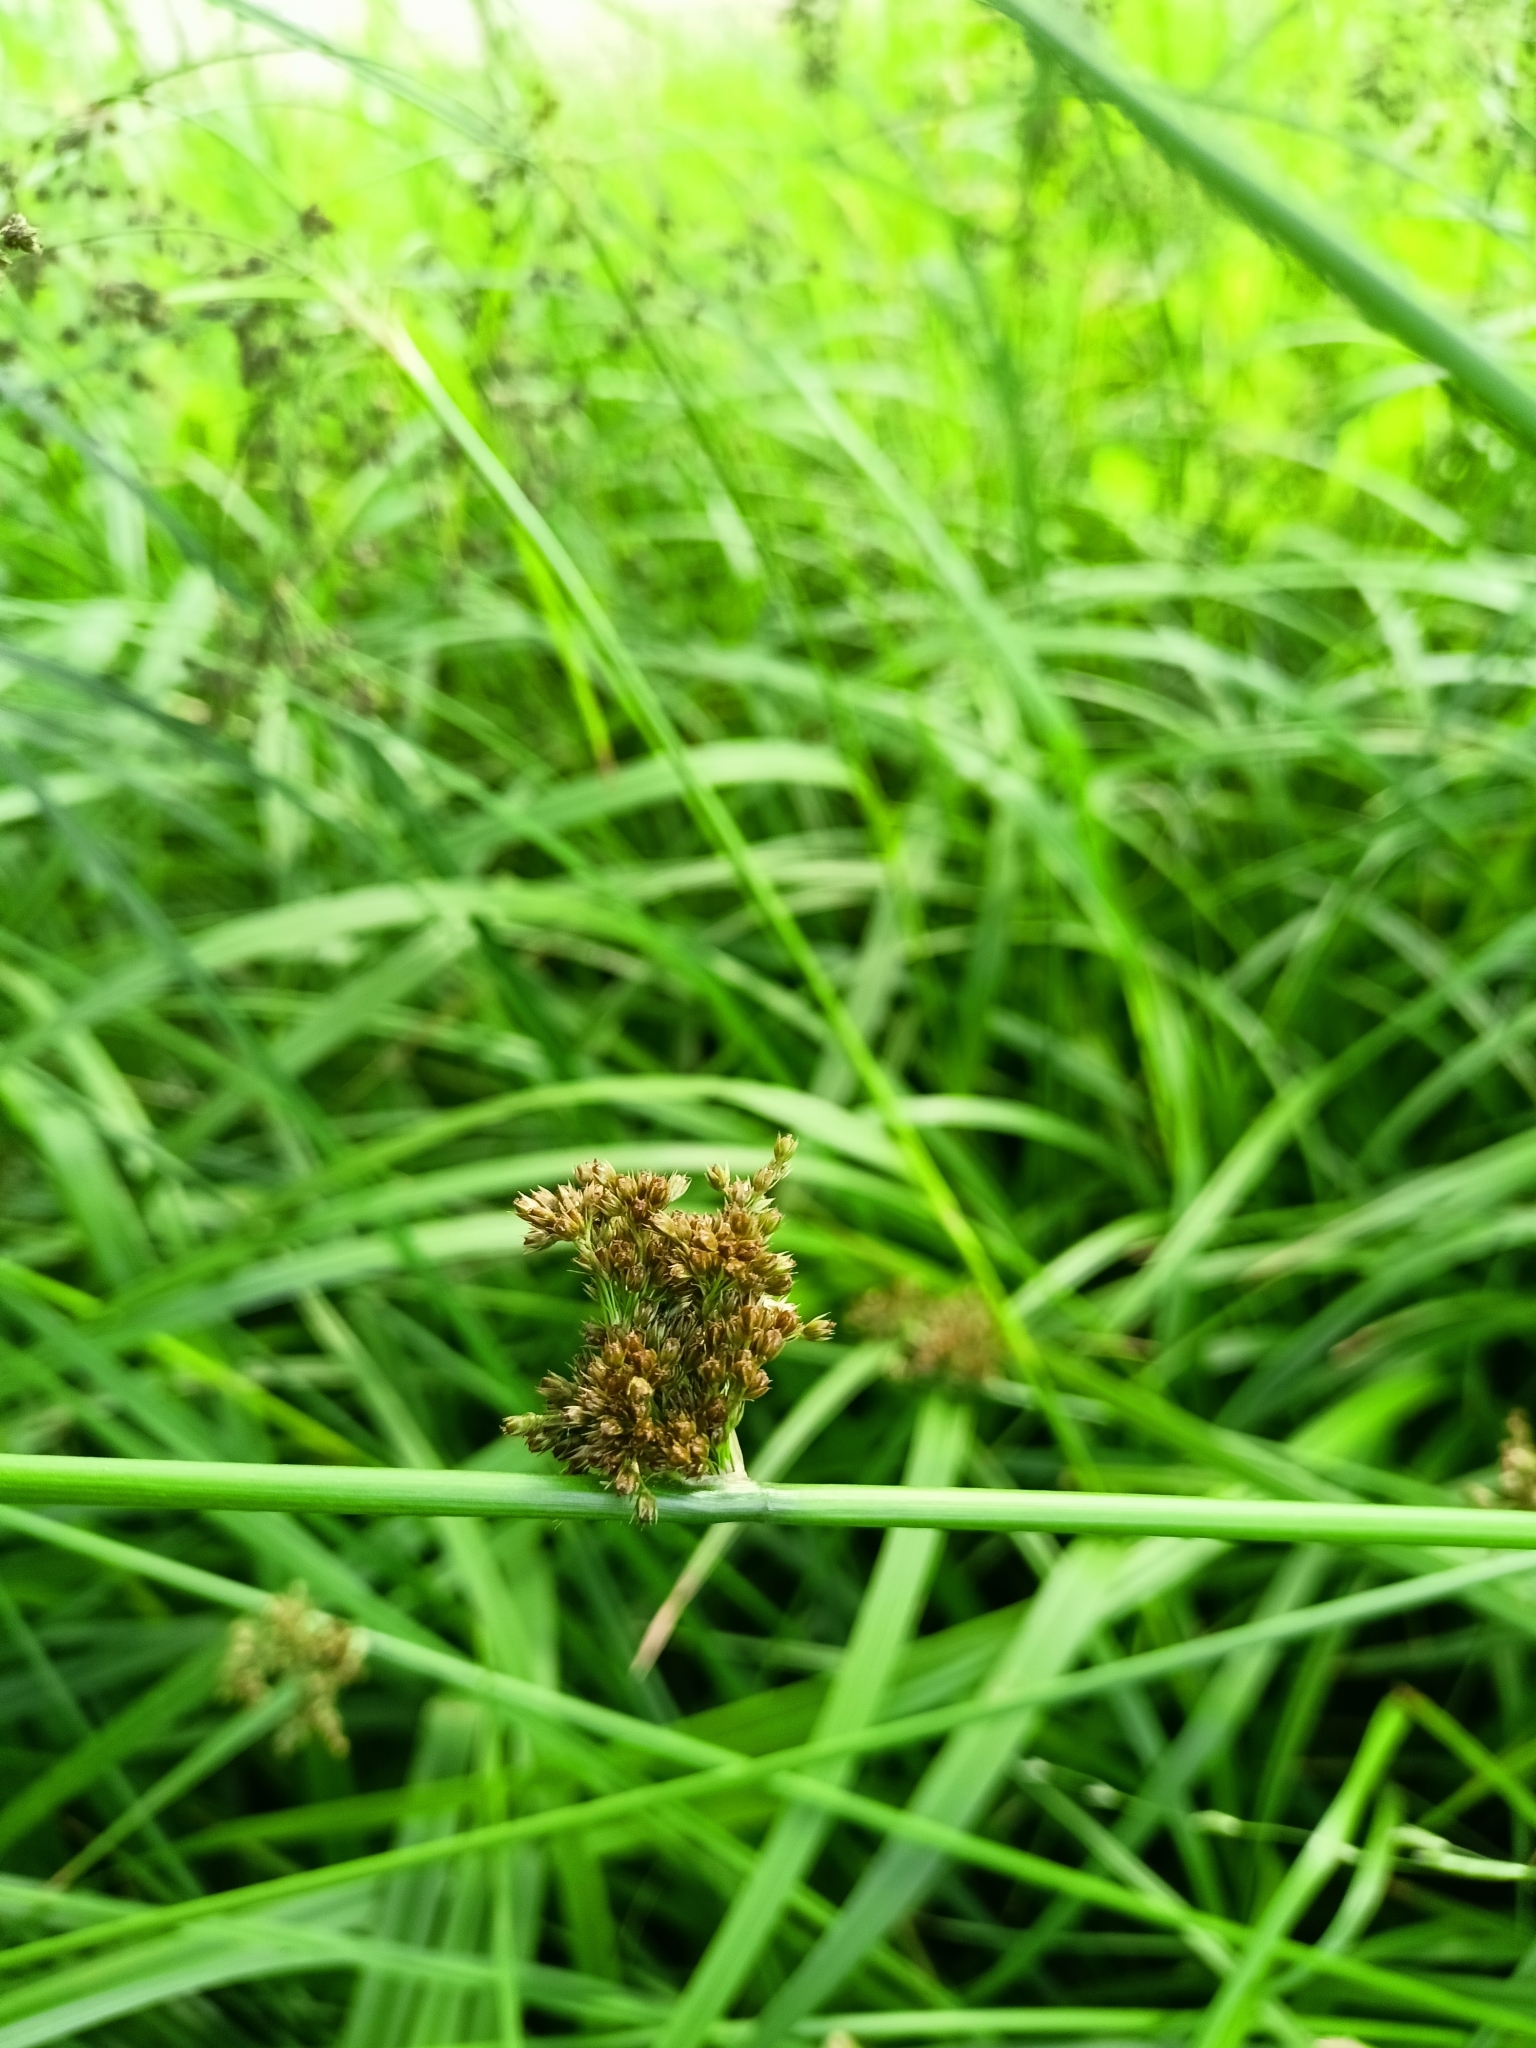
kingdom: Plantae
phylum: Tracheophyta
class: Liliopsida
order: Poales
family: Juncaceae
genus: Juncus
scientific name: Juncus effusus
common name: Soft rush
